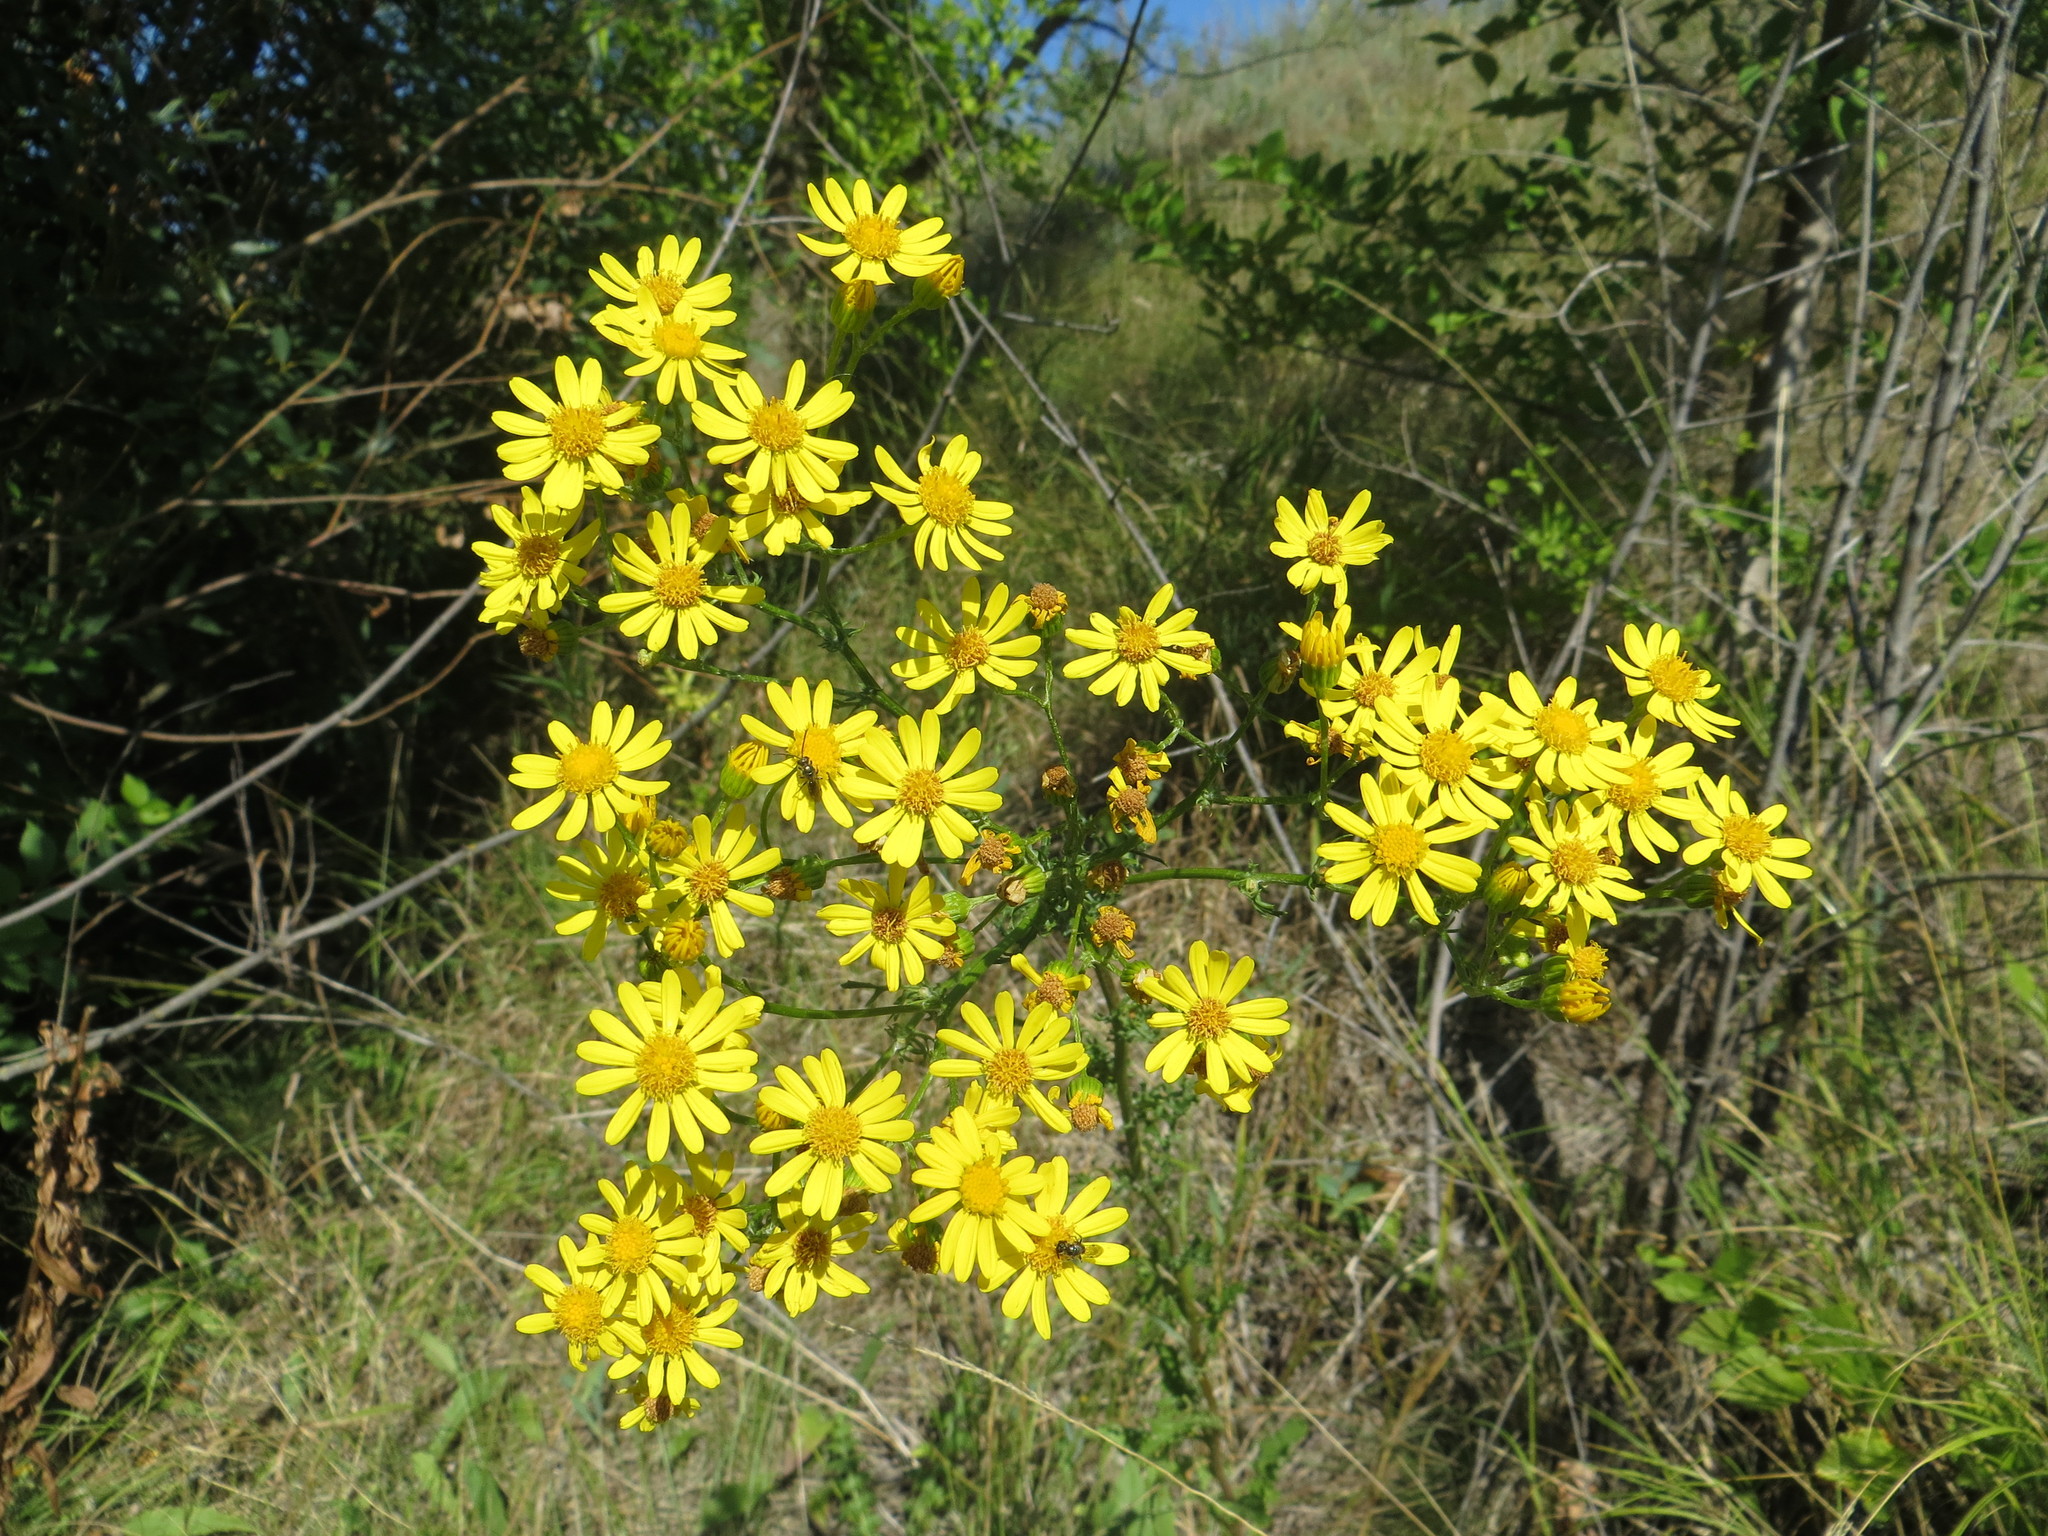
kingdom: Plantae
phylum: Tracheophyta
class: Magnoliopsida
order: Asterales
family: Asteraceae
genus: Jacobaea
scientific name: Jacobaea vulgaris
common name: Stinking willie
